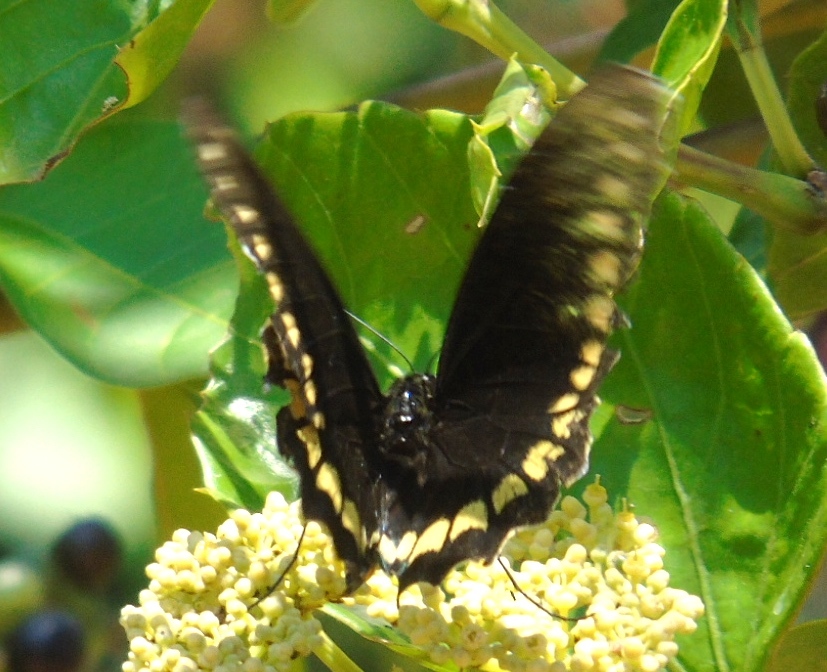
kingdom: Animalia
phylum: Arthropoda
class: Insecta
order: Lepidoptera
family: Papilionidae
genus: Battus
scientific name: Battus polydamas
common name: Polydamas swallowtail
